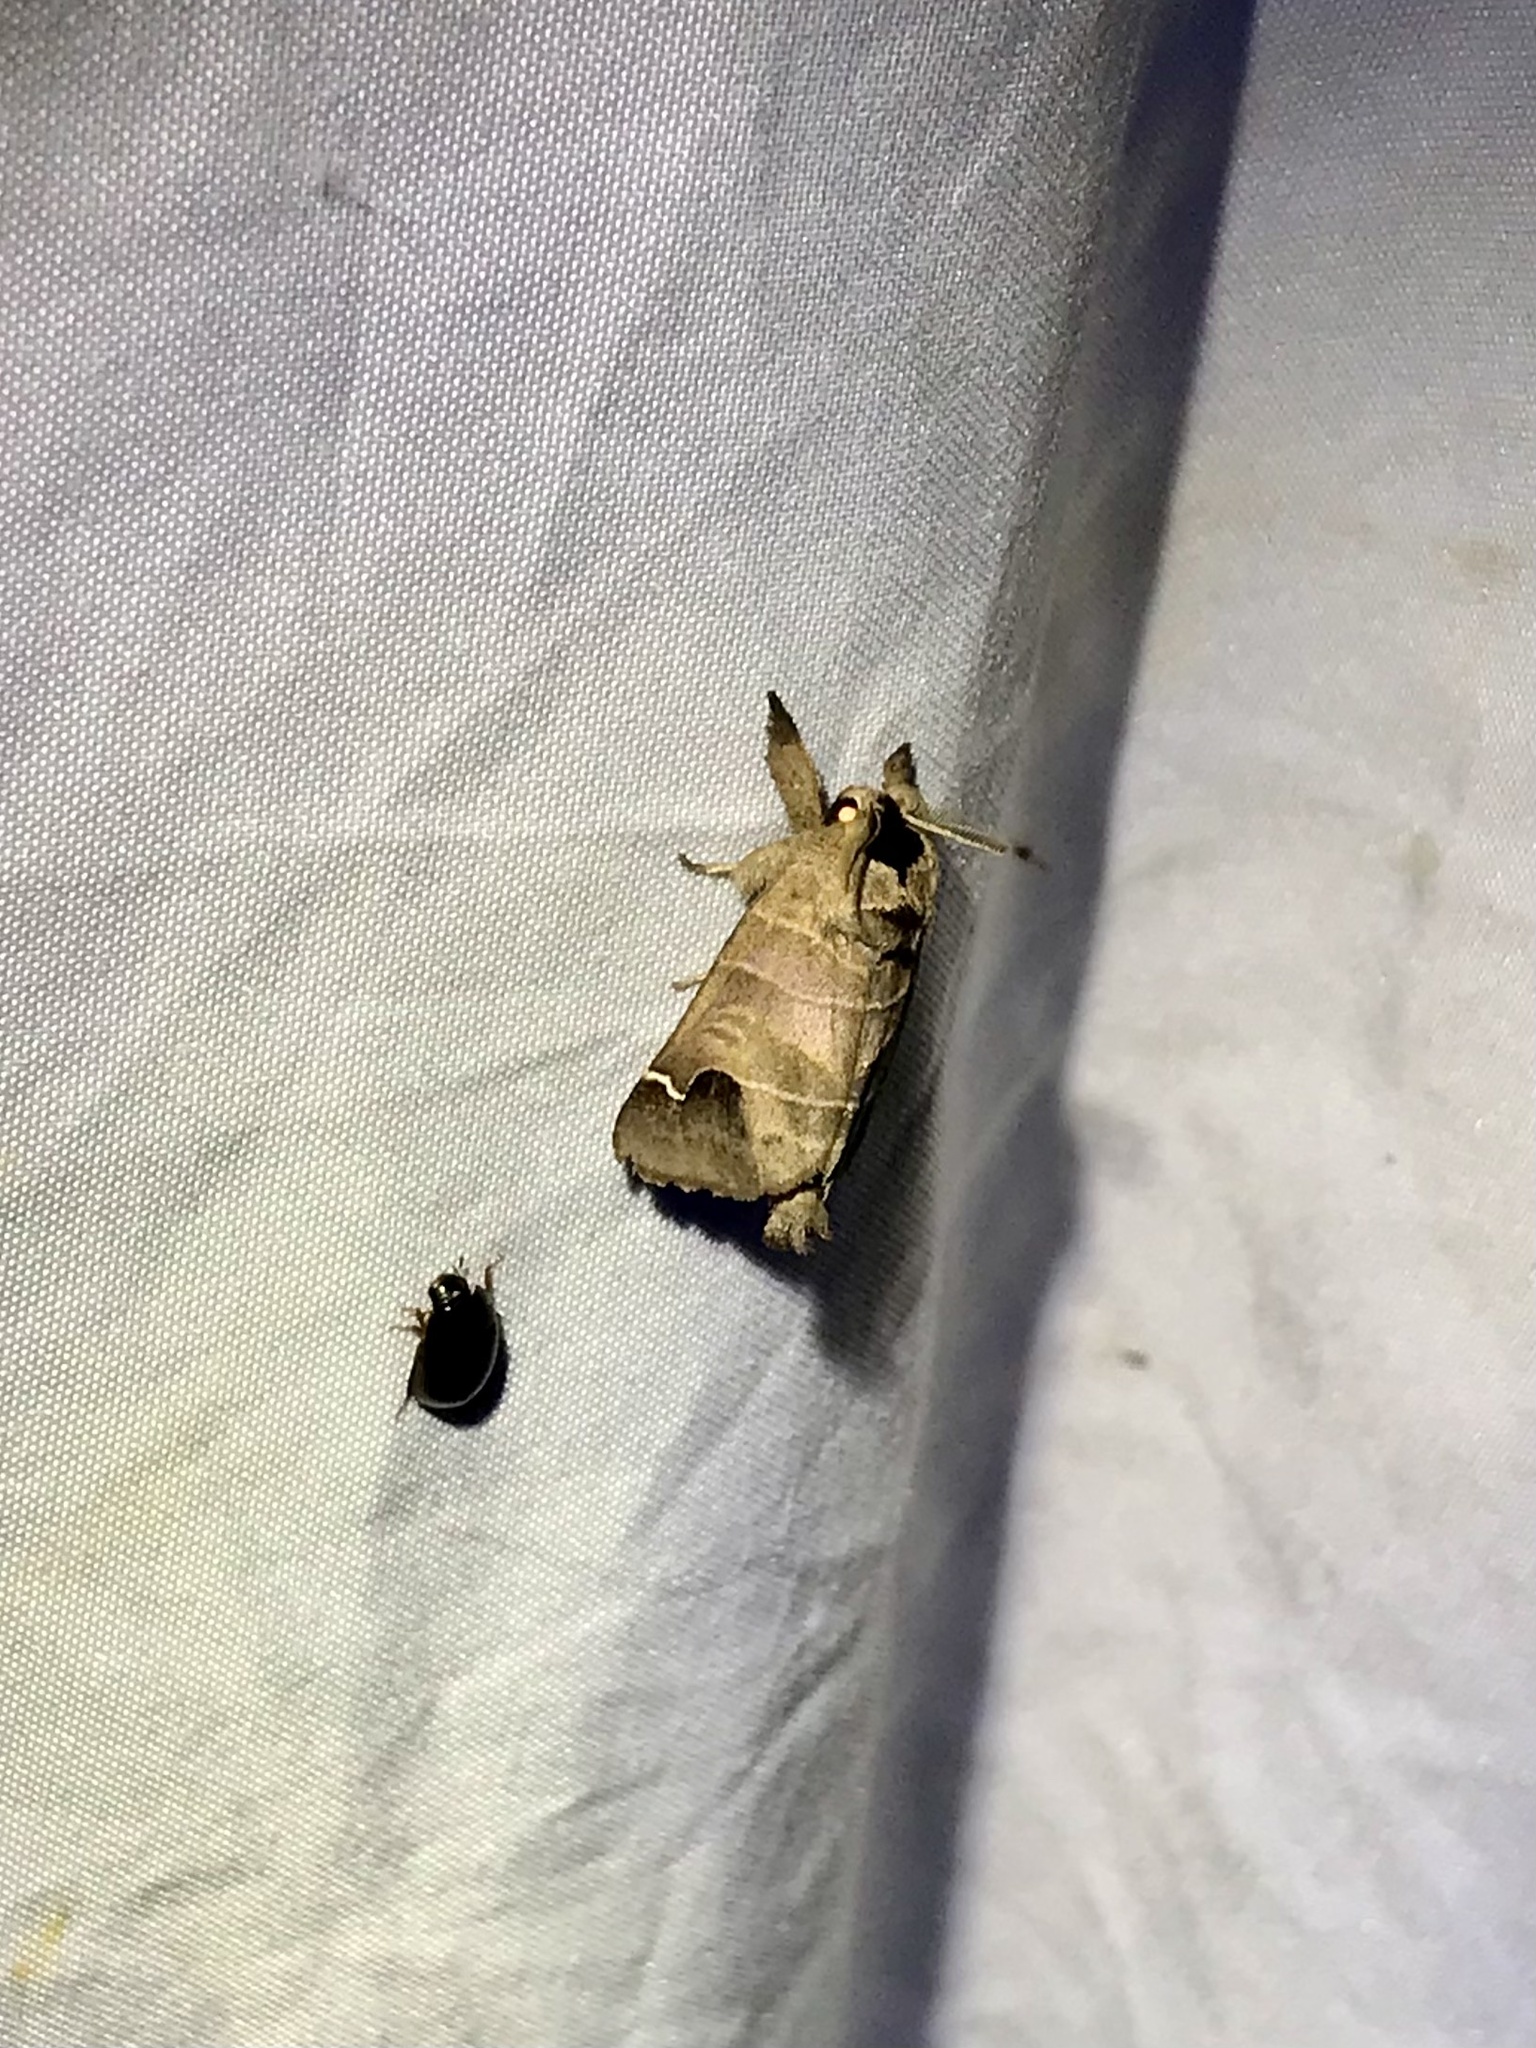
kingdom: Animalia
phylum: Arthropoda
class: Insecta
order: Lepidoptera
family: Notodontidae
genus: Clostera
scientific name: Clostera albosigma
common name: Sigmoid prominent
